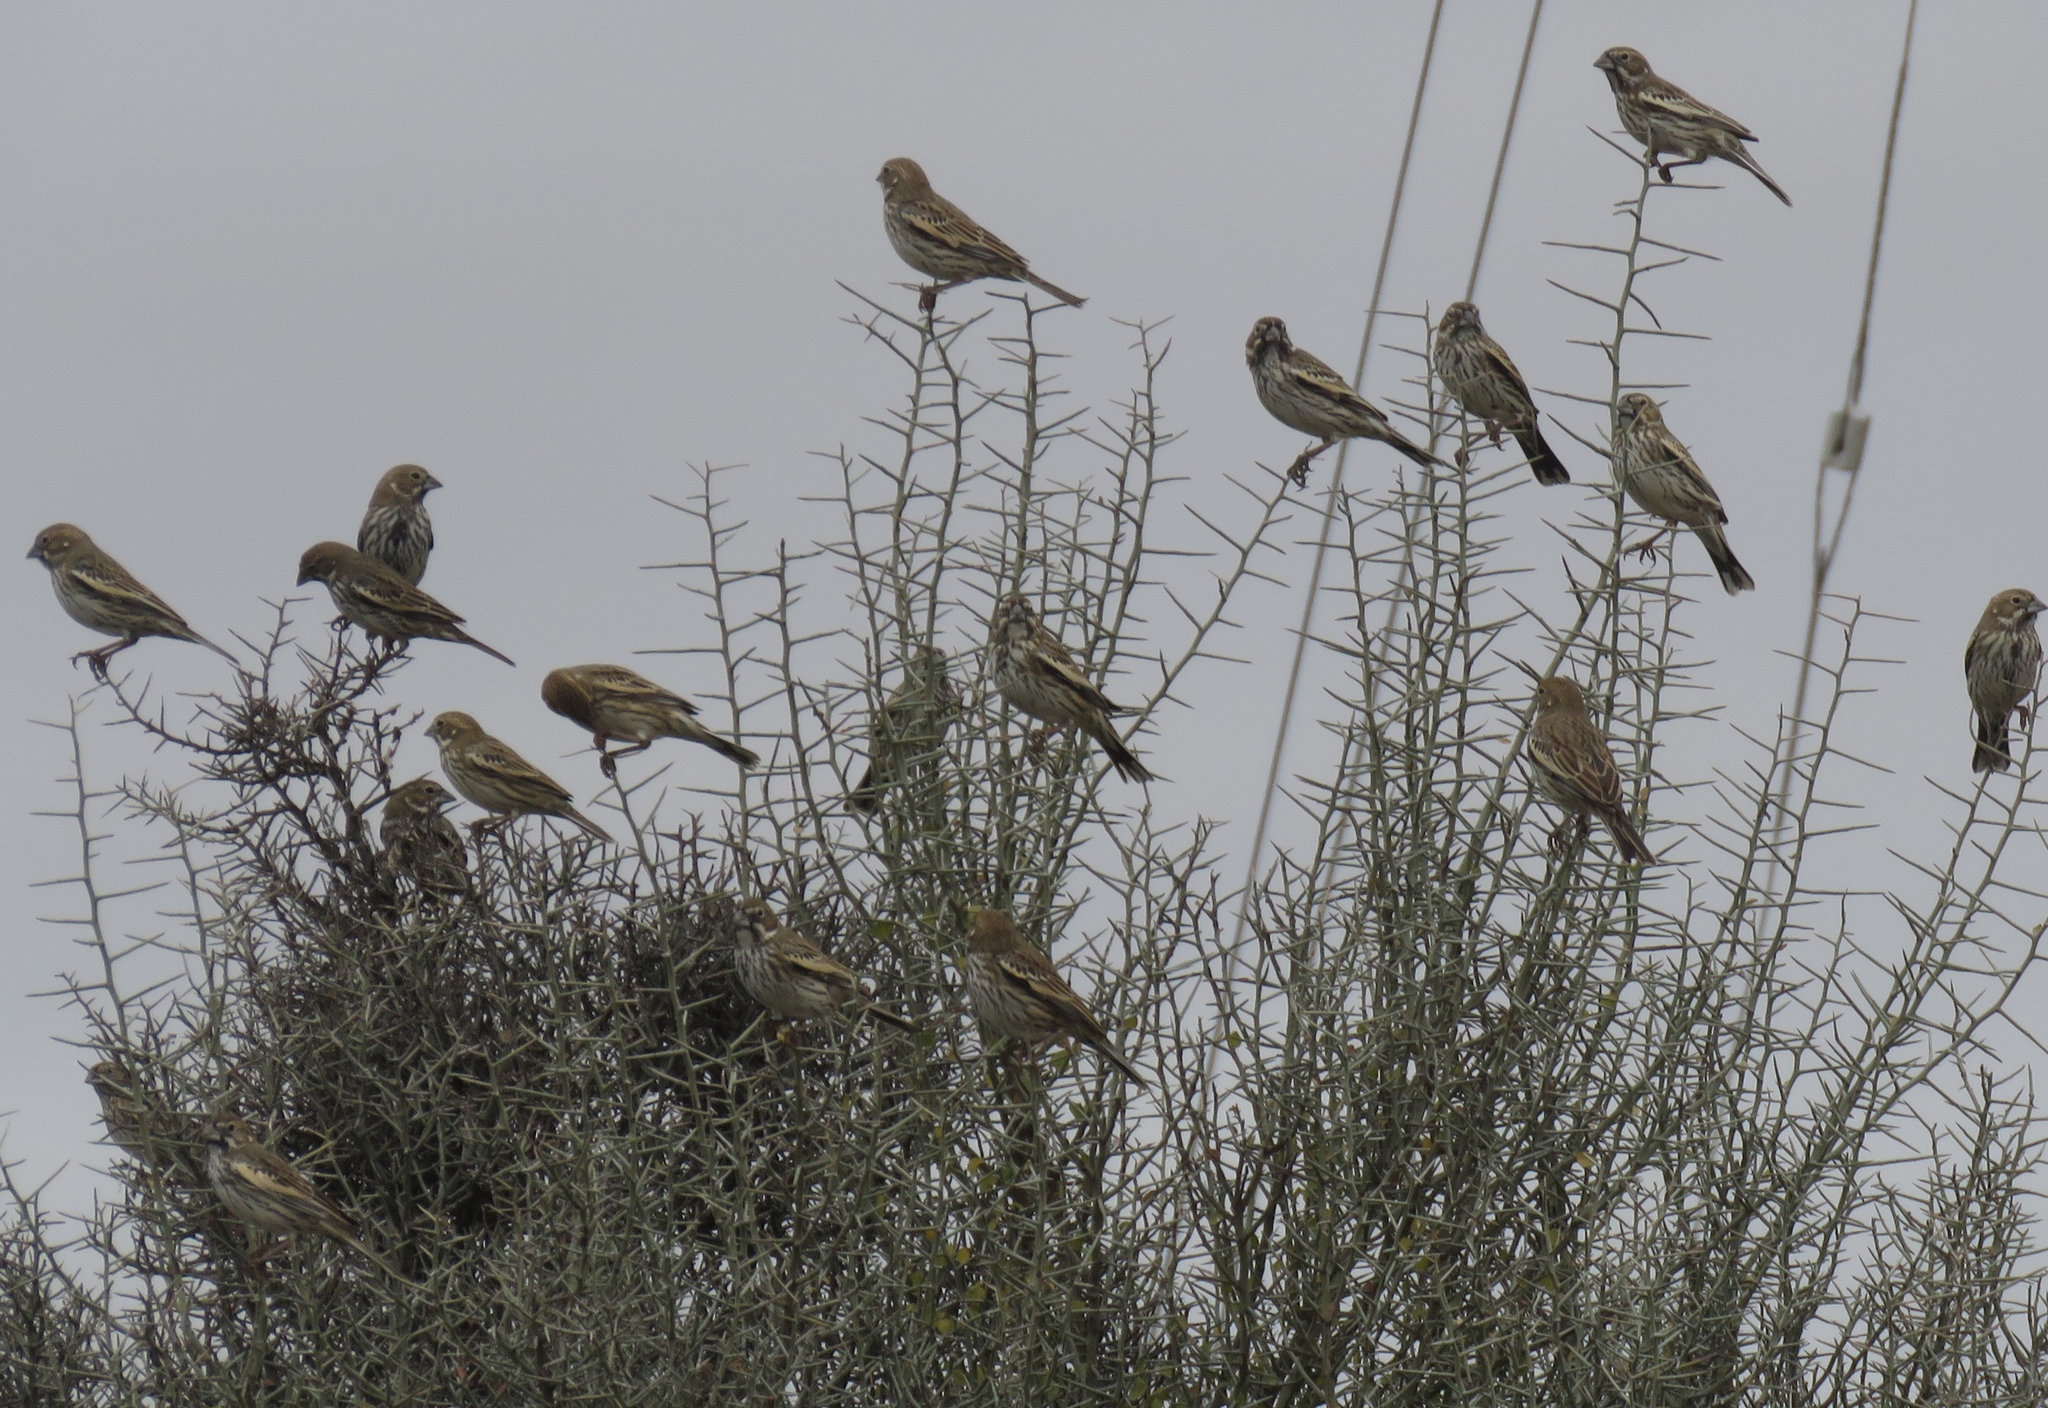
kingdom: Animalia
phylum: Chordata
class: Aves
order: Passeriformes
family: Passerellidae
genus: Calamospiza
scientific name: Calamospiza melanocorys
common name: Lark bunting
